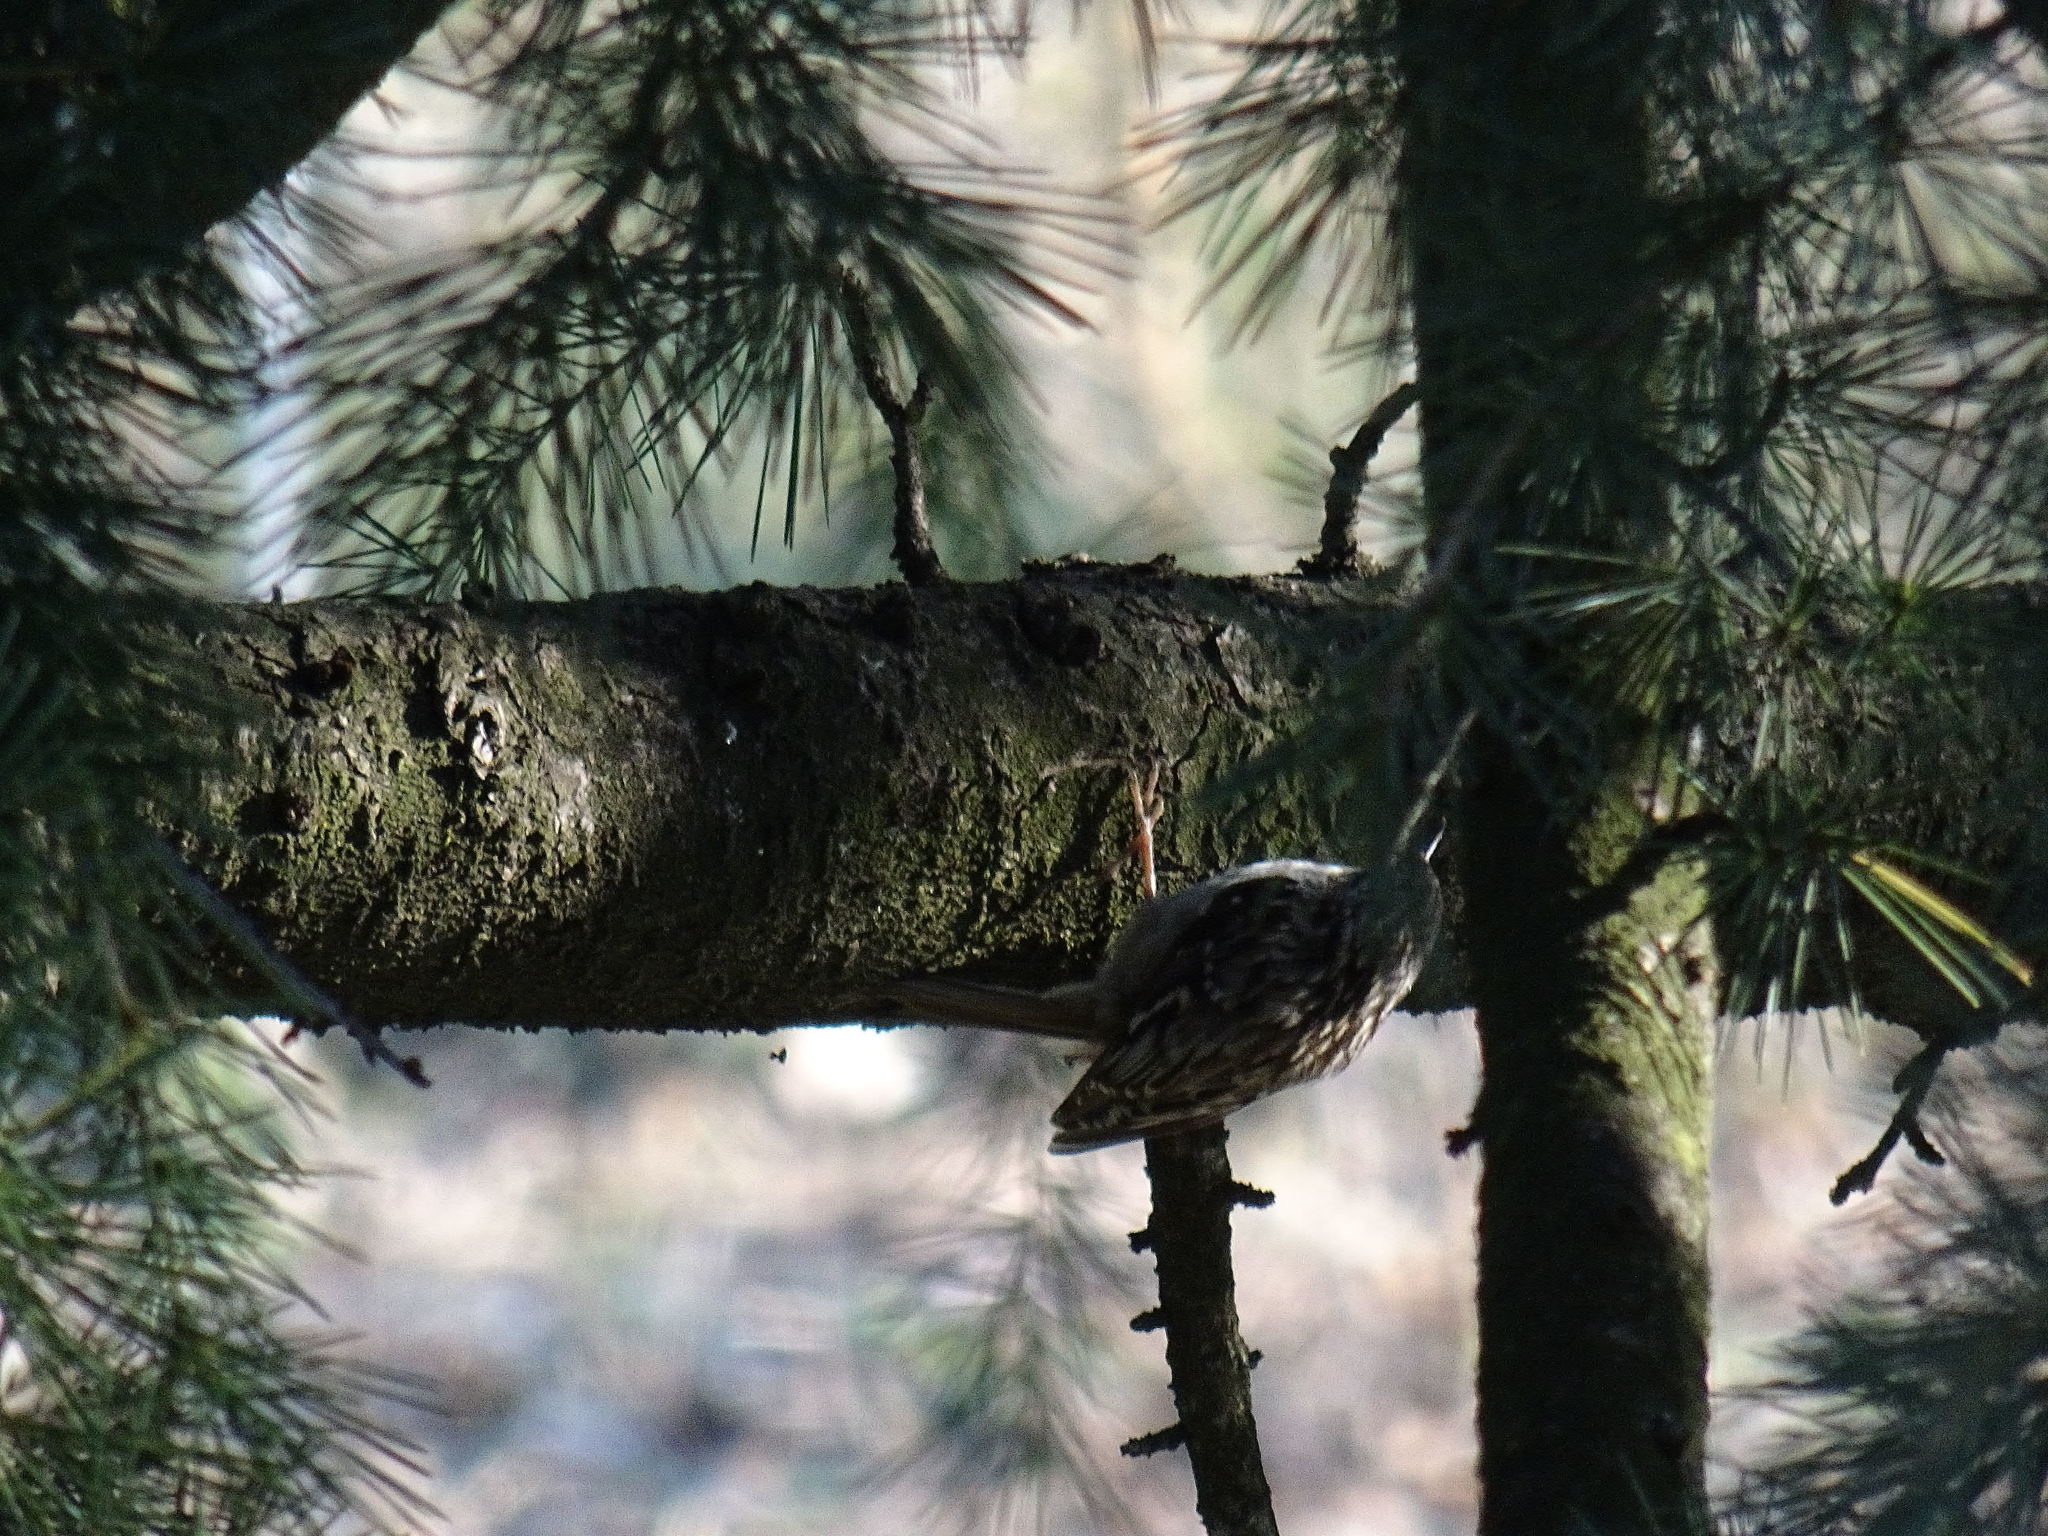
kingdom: Animalia
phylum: Chordata
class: Aves
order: Passeriformes
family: Certhiidae
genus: Certhia
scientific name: Certhia brachydactyla
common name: Short-toed treecreeper
